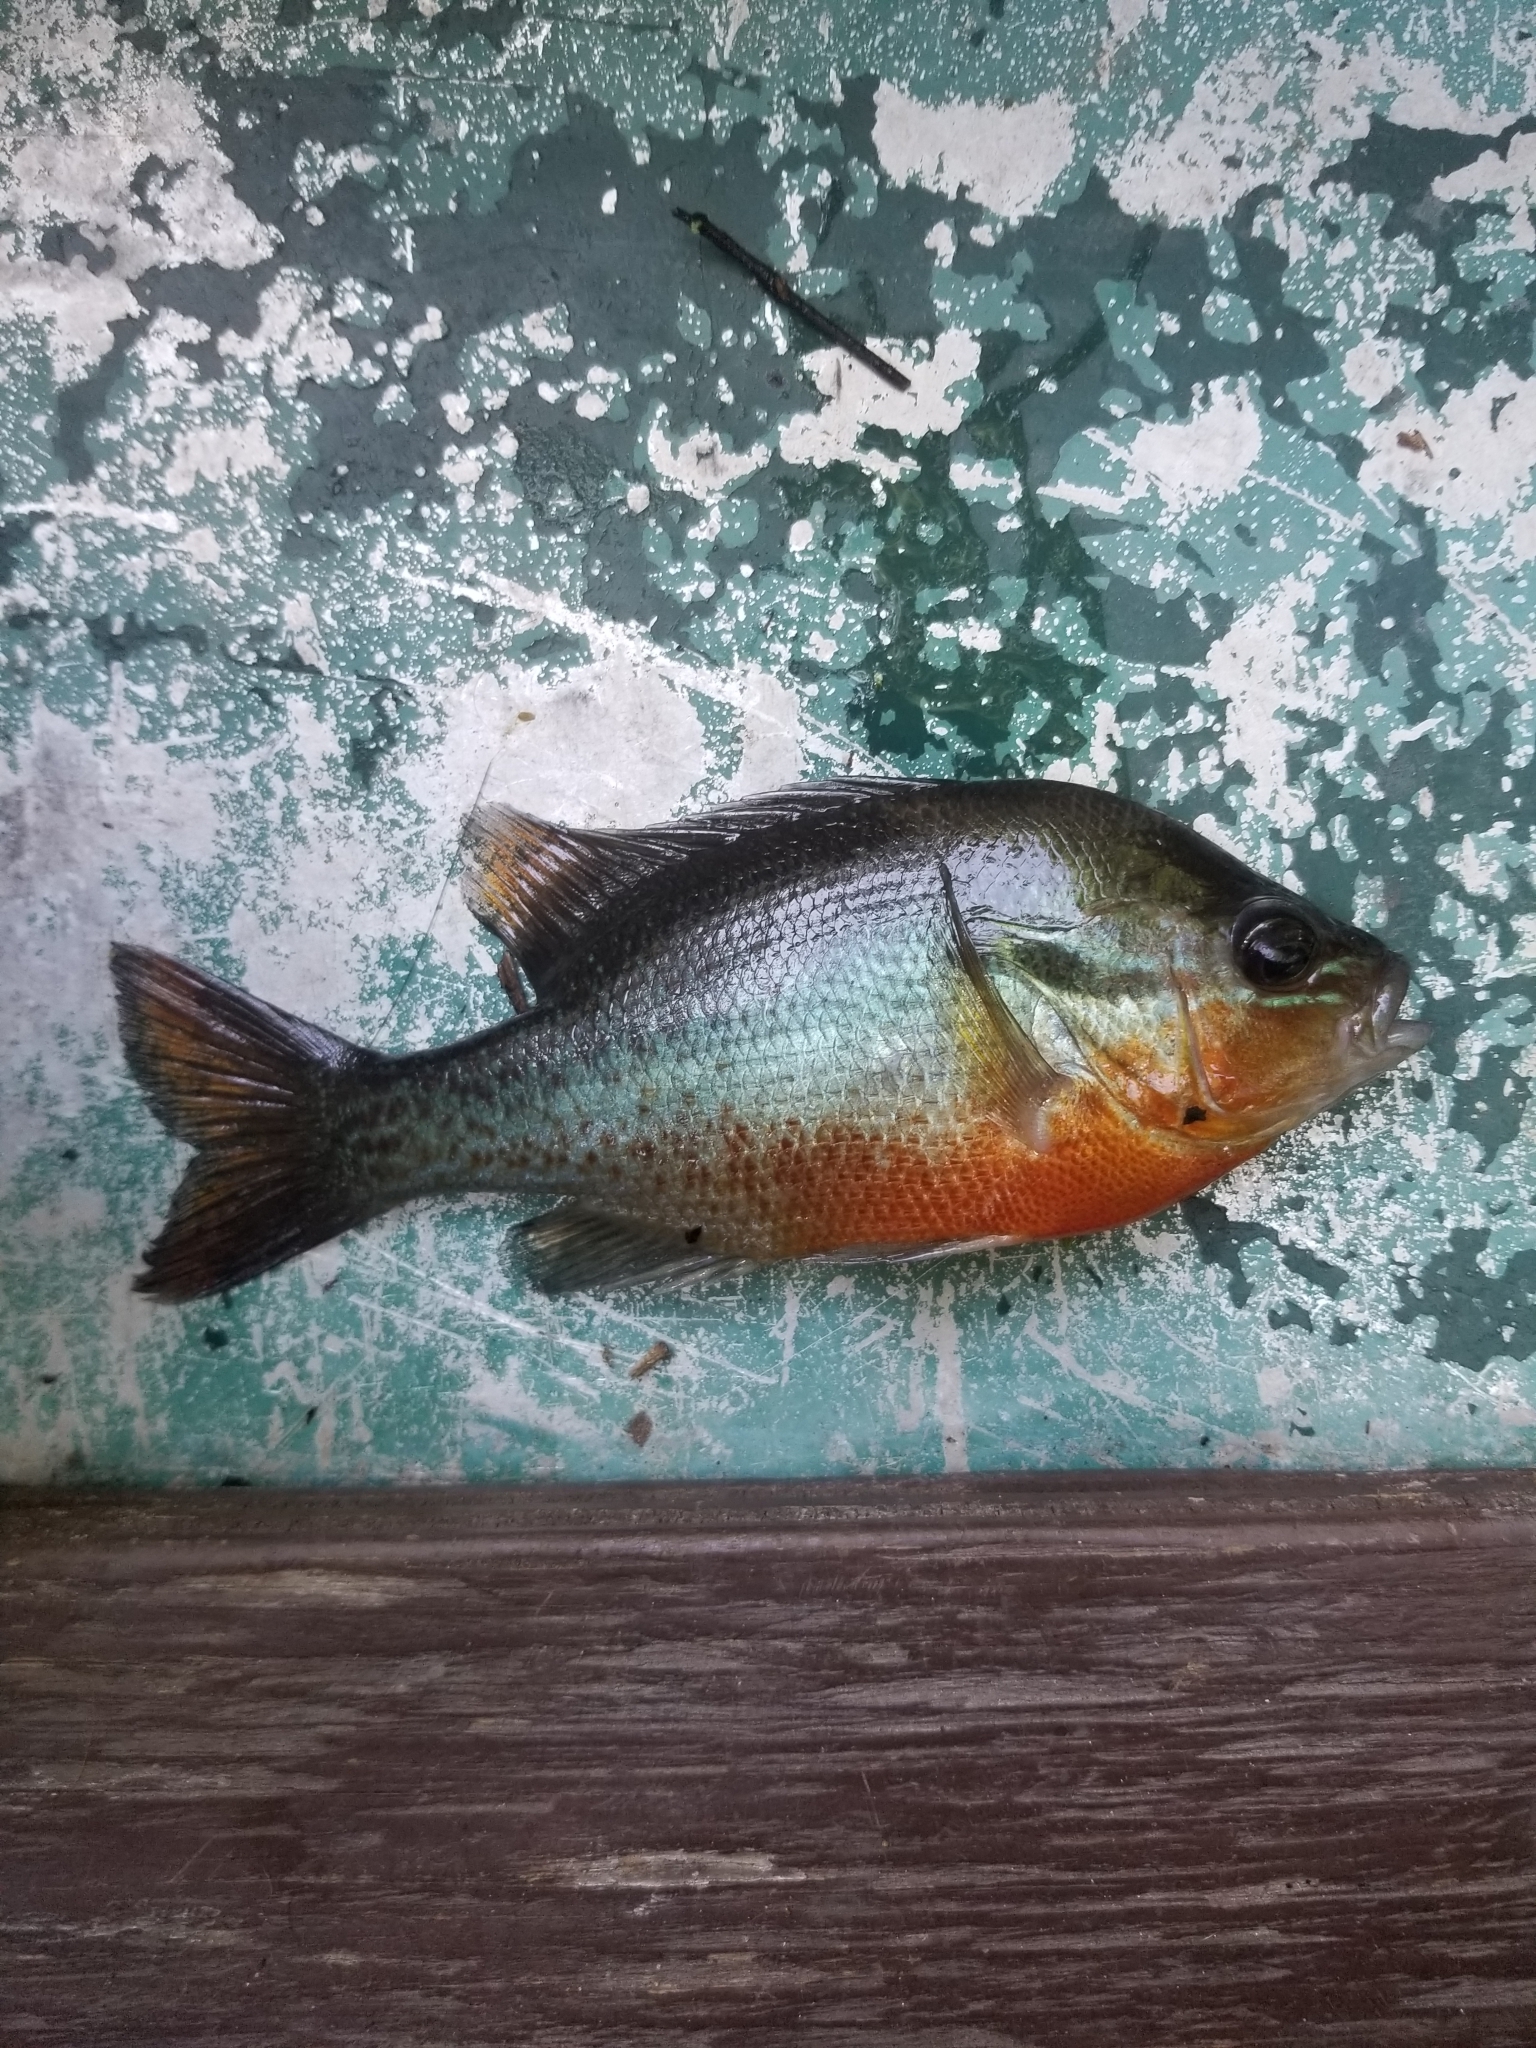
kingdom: Animalia
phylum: Chordata
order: Perciformes
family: Centrarchidae
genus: Lepomis
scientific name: Lepomis auritus
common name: Redbreast sunfish
